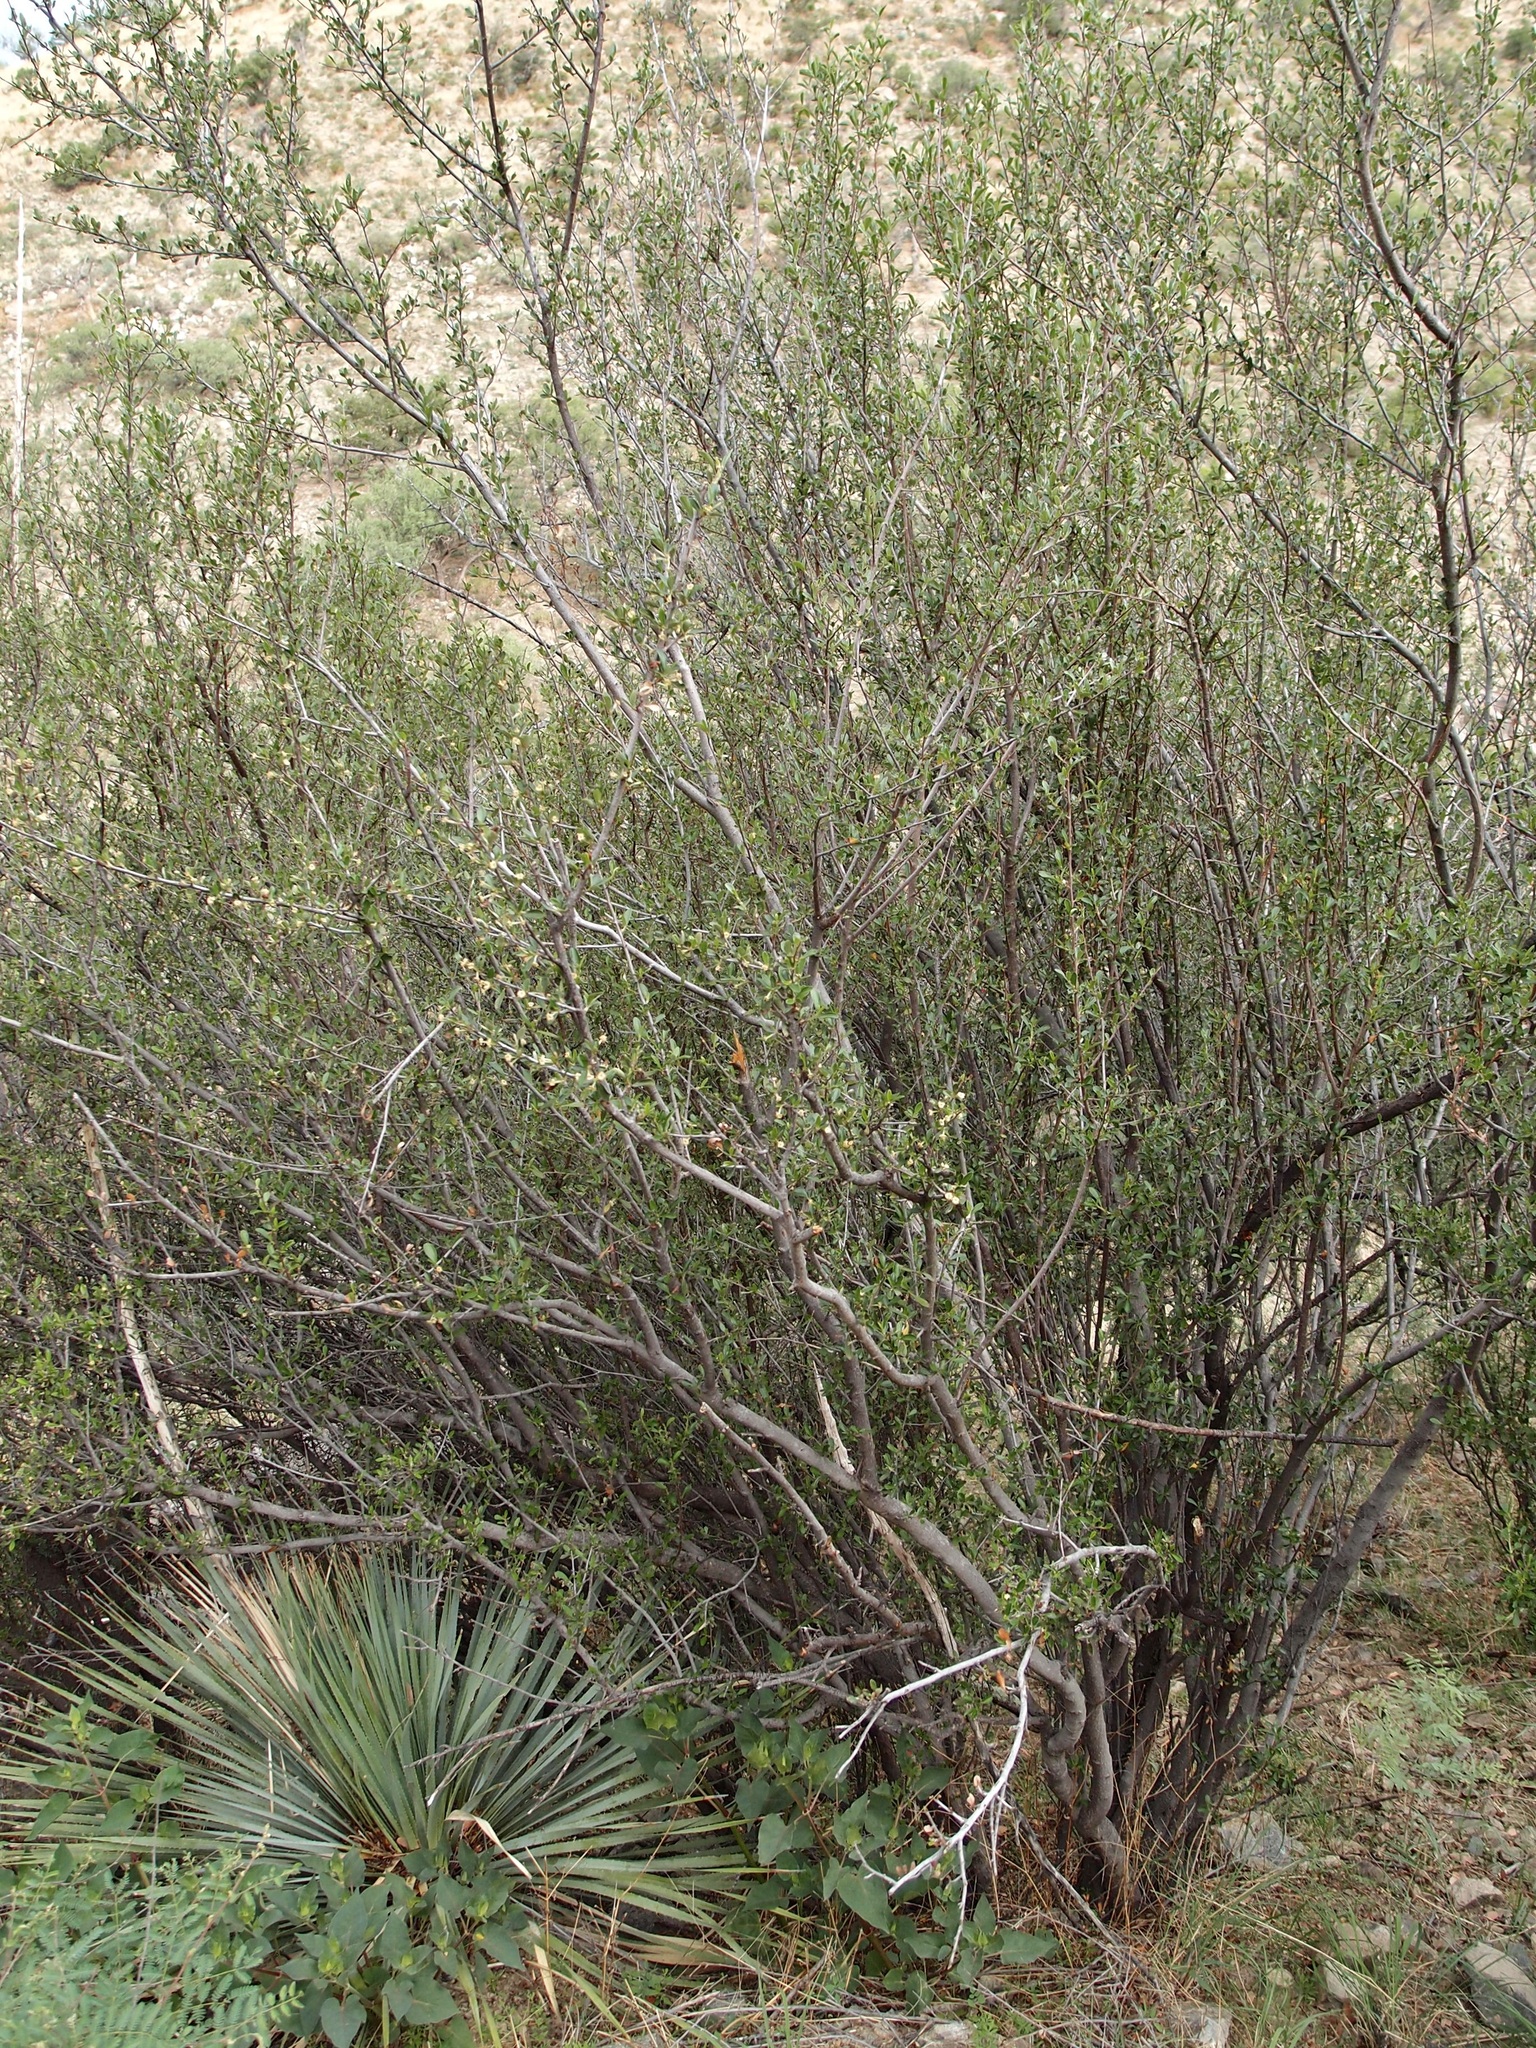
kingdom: Plantae
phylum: Tracheophyta
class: Magnoliopsida
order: Rosales
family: Rosaceae
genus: Cercocarpus
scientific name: Cercocarpus breviflorus
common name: Wright's mountain-mahogany
